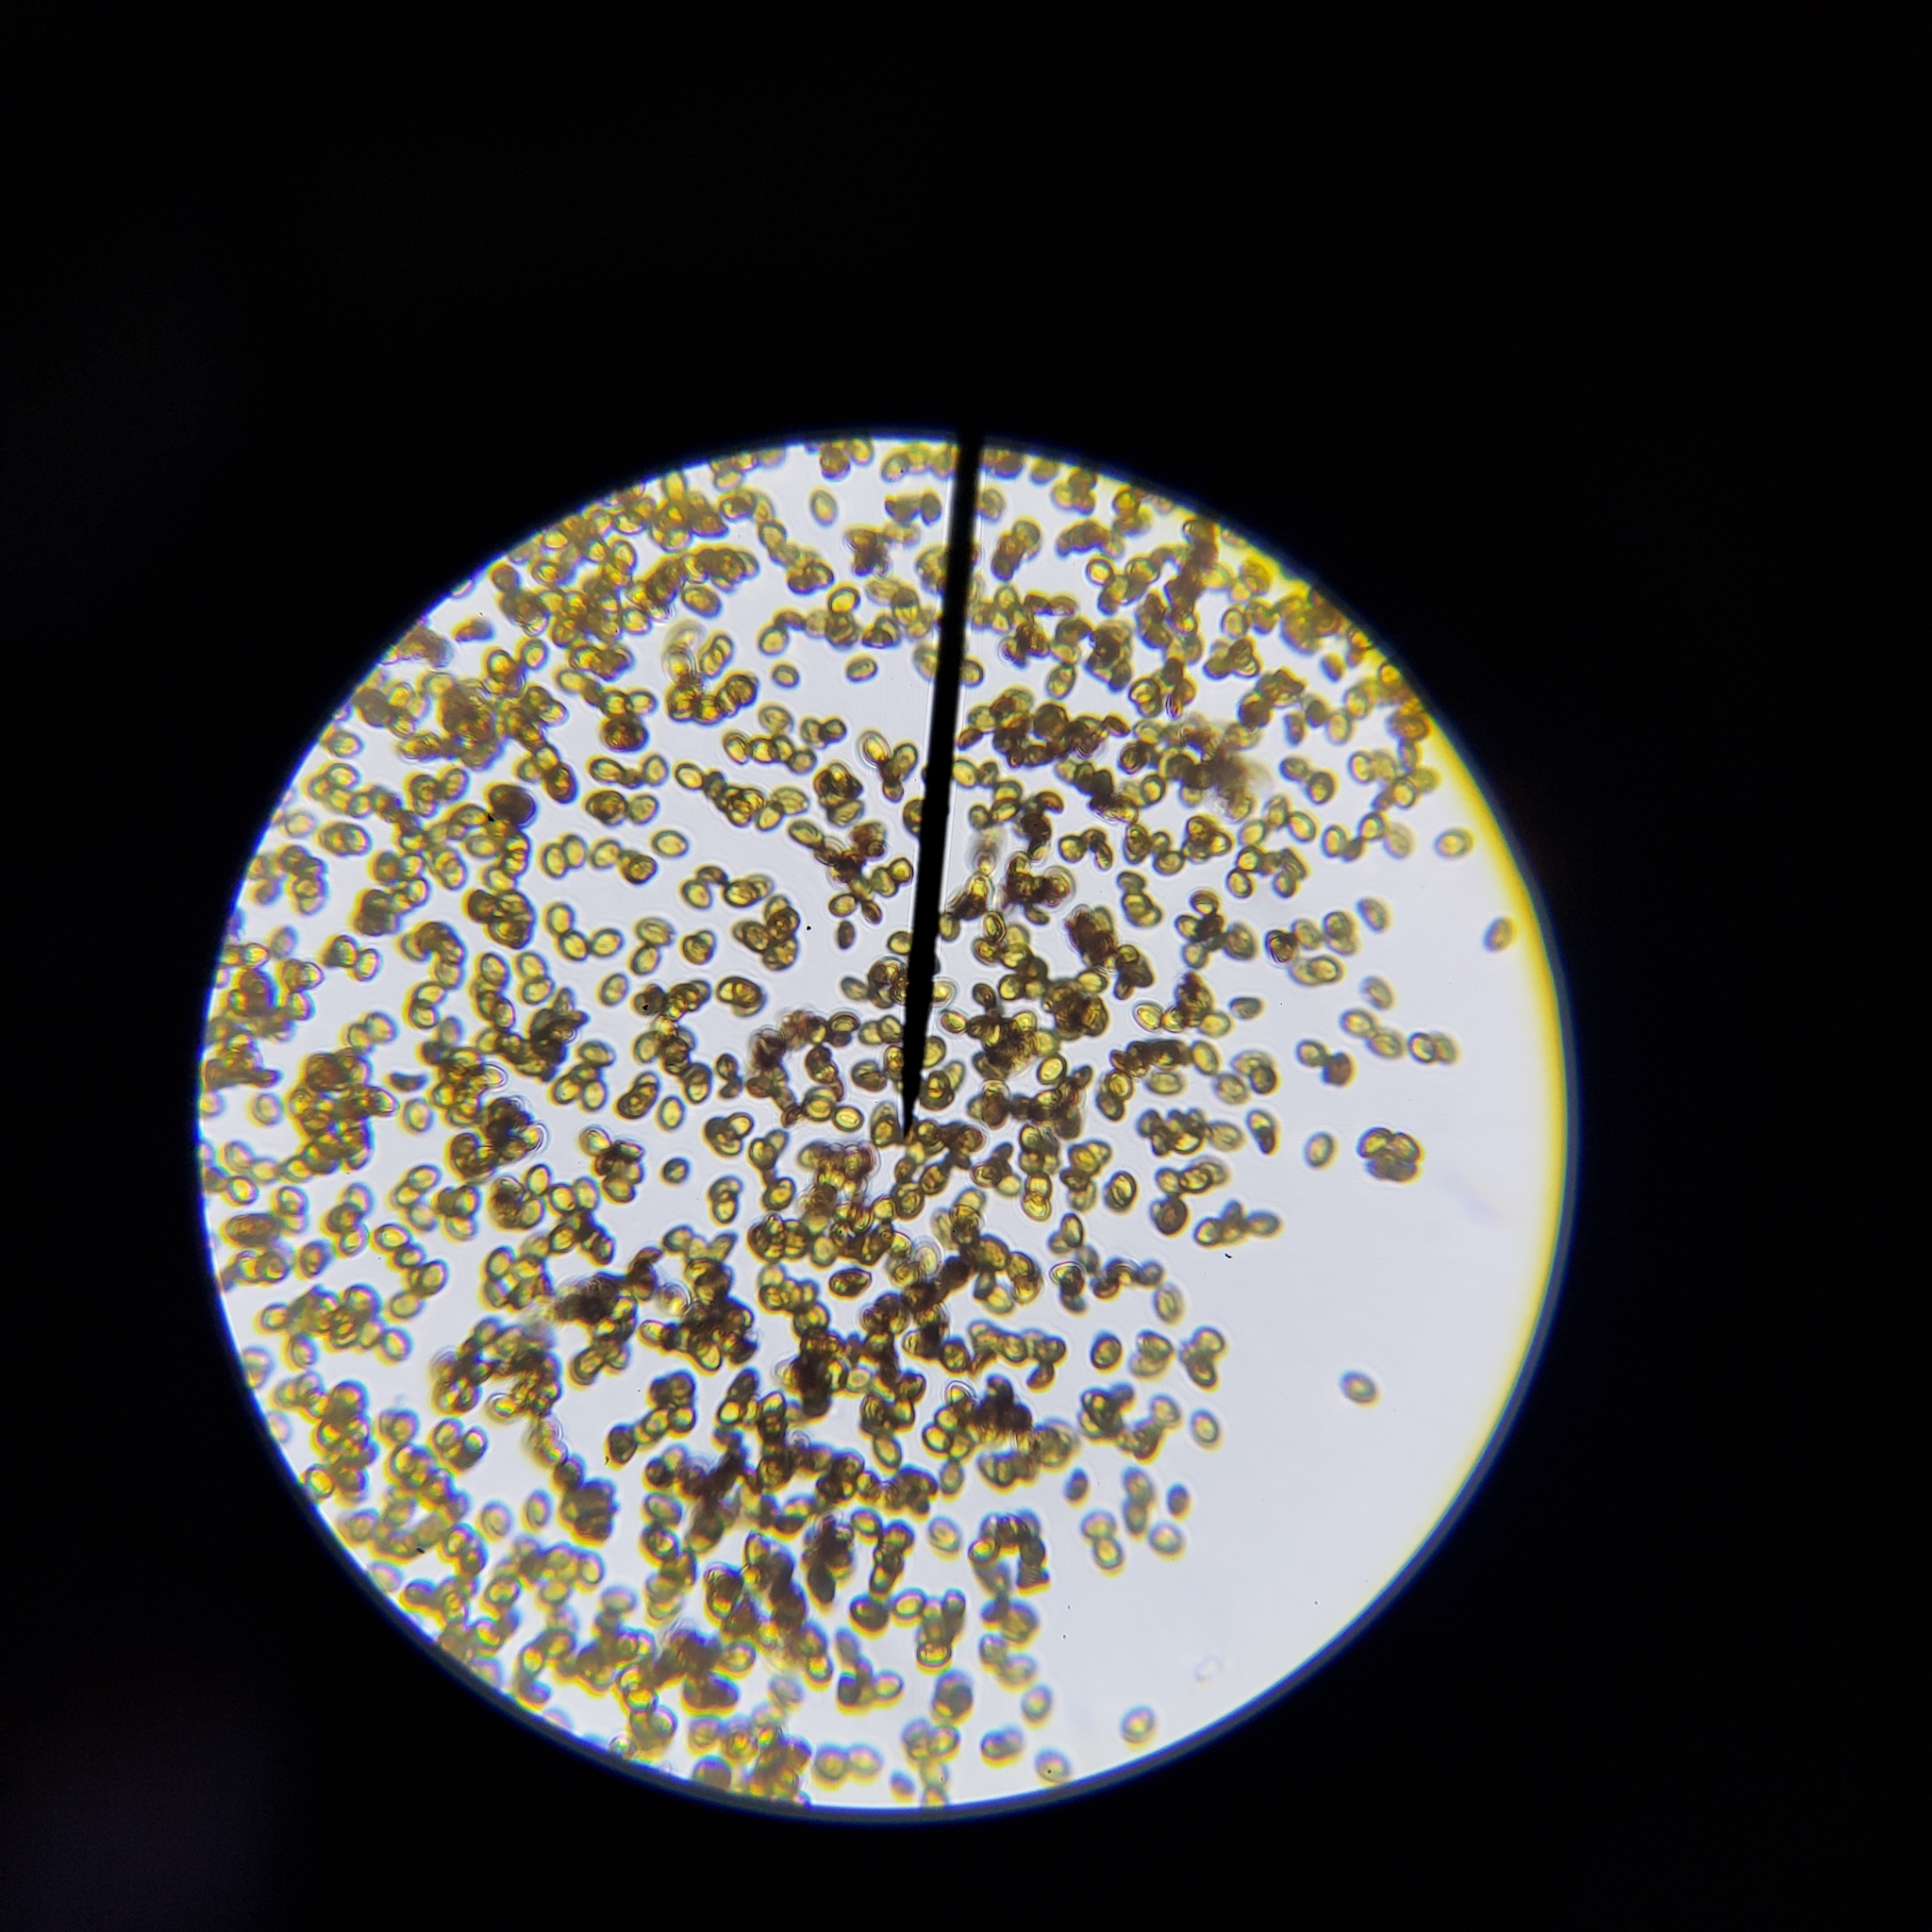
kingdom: Fungi
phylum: Basidiomycota
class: Agaricomycetes
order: Agaricales
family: Bolbitiaceae
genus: Bolbitius
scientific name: Bolbitius titubans
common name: Yellow fieldcap
